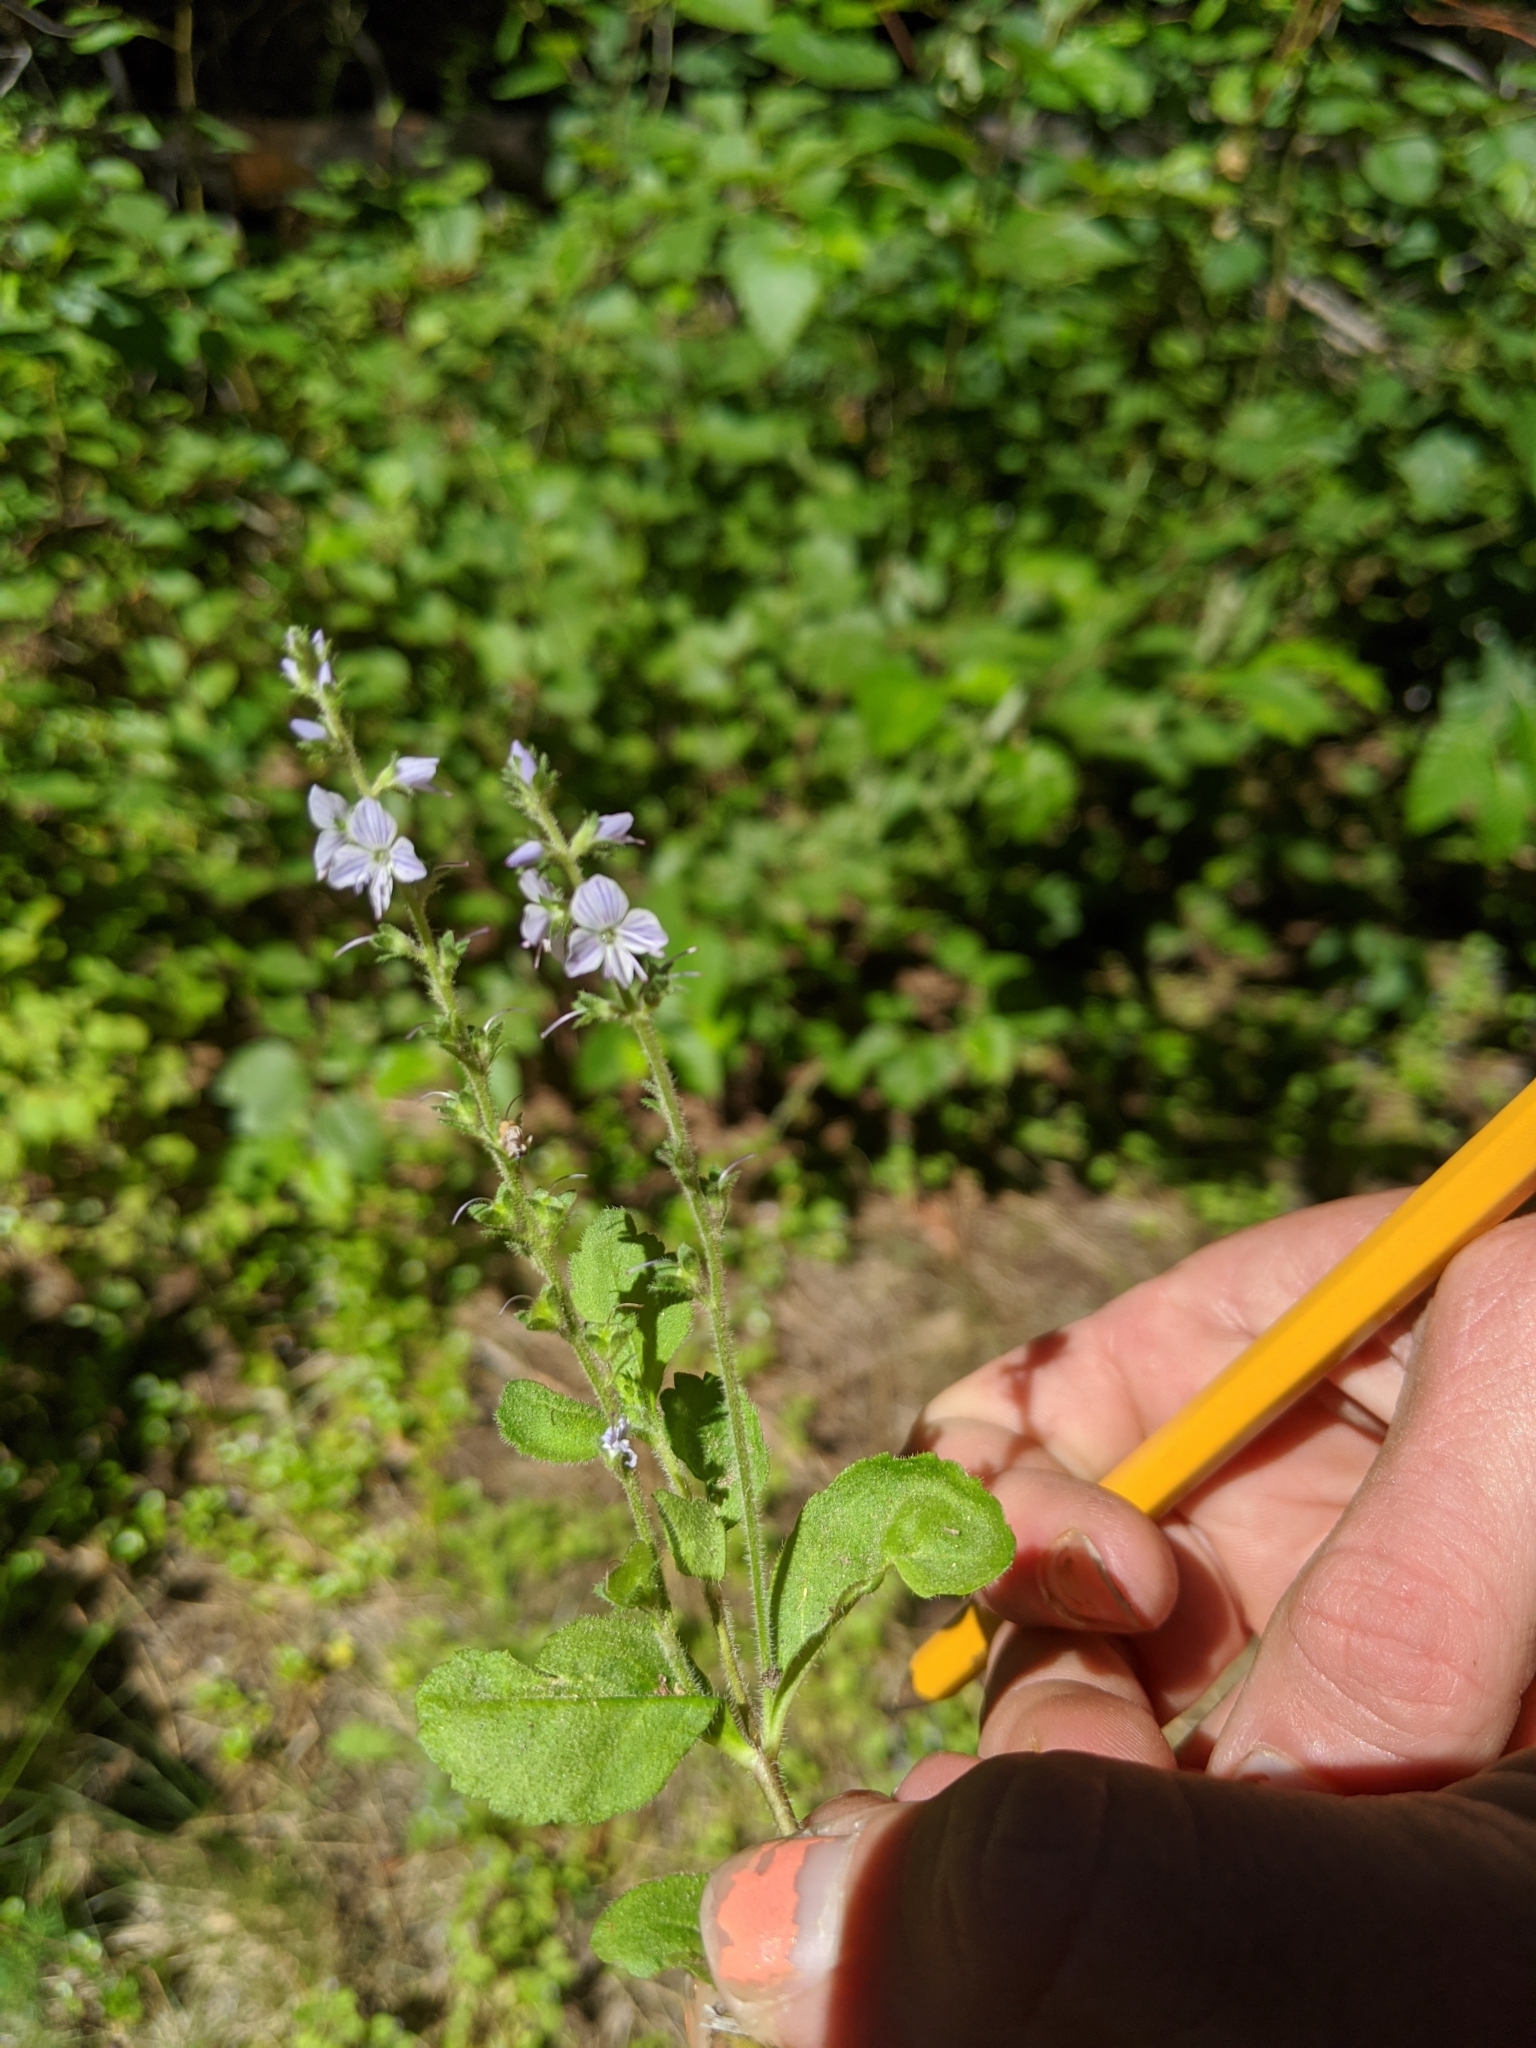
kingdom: Plantae
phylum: Tracheophyta
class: Magnoliopsida
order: Lamiales
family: Plantaginaceae
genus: Veronica
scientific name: Veronica officinalis
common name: Common speedwell
